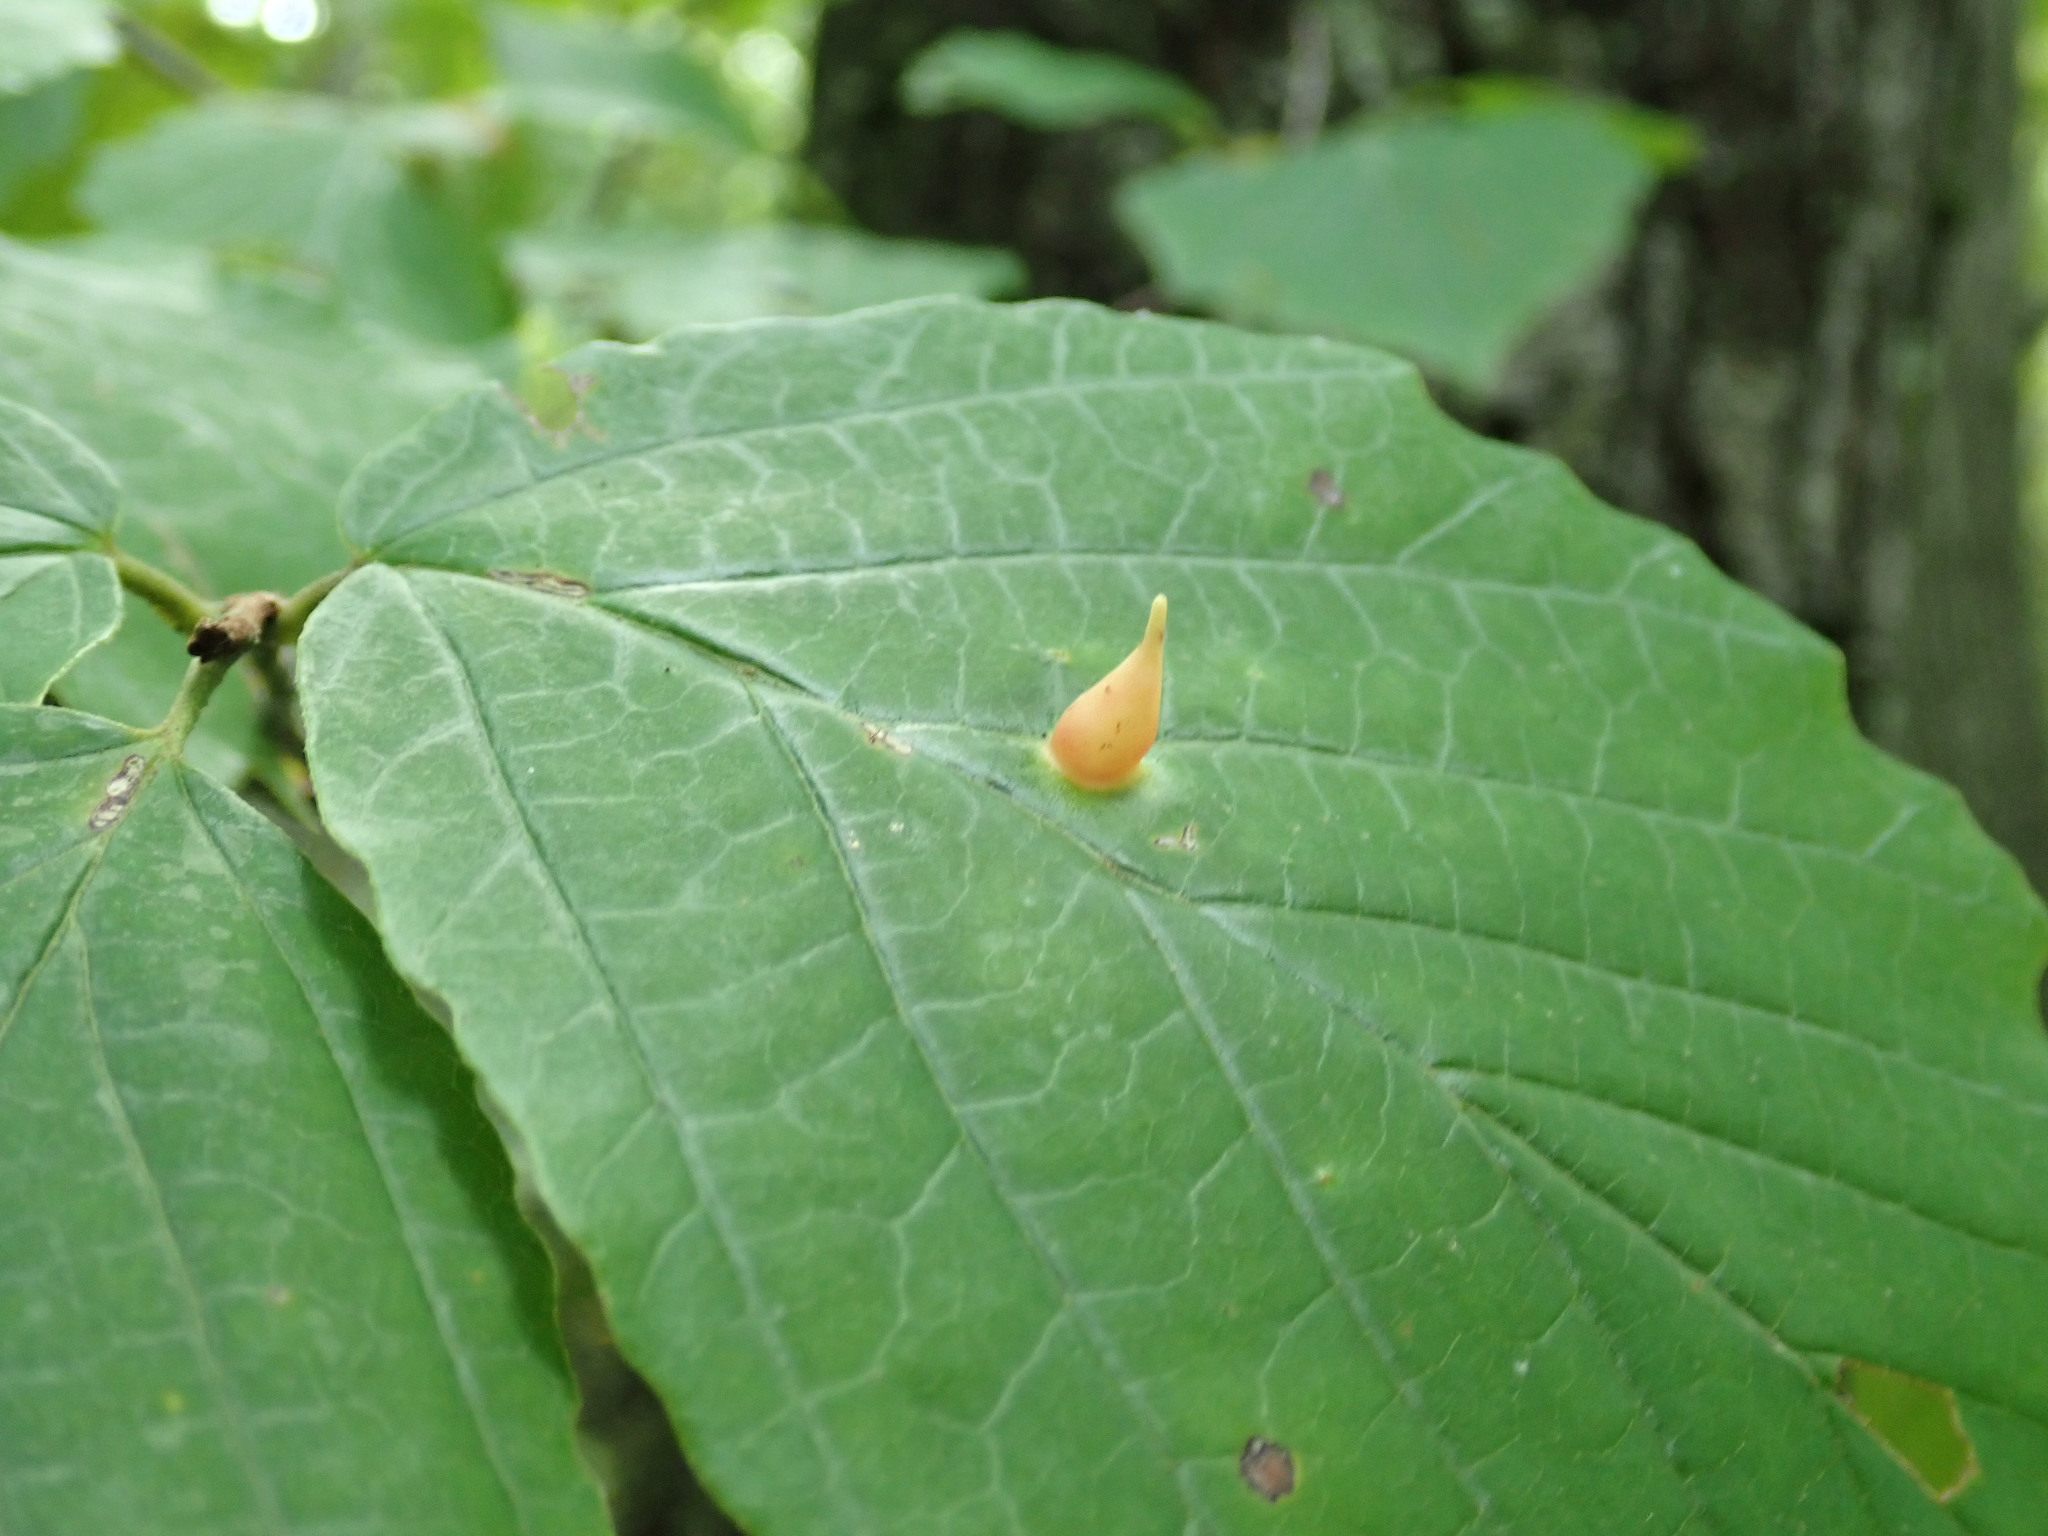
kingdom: Animalia
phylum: Arthropoda
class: Insecta
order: Hemiptera
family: Aphididae
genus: Hormaphis
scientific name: Hormaphis hamamelidis
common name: Witch-hazel cone gall aphid
